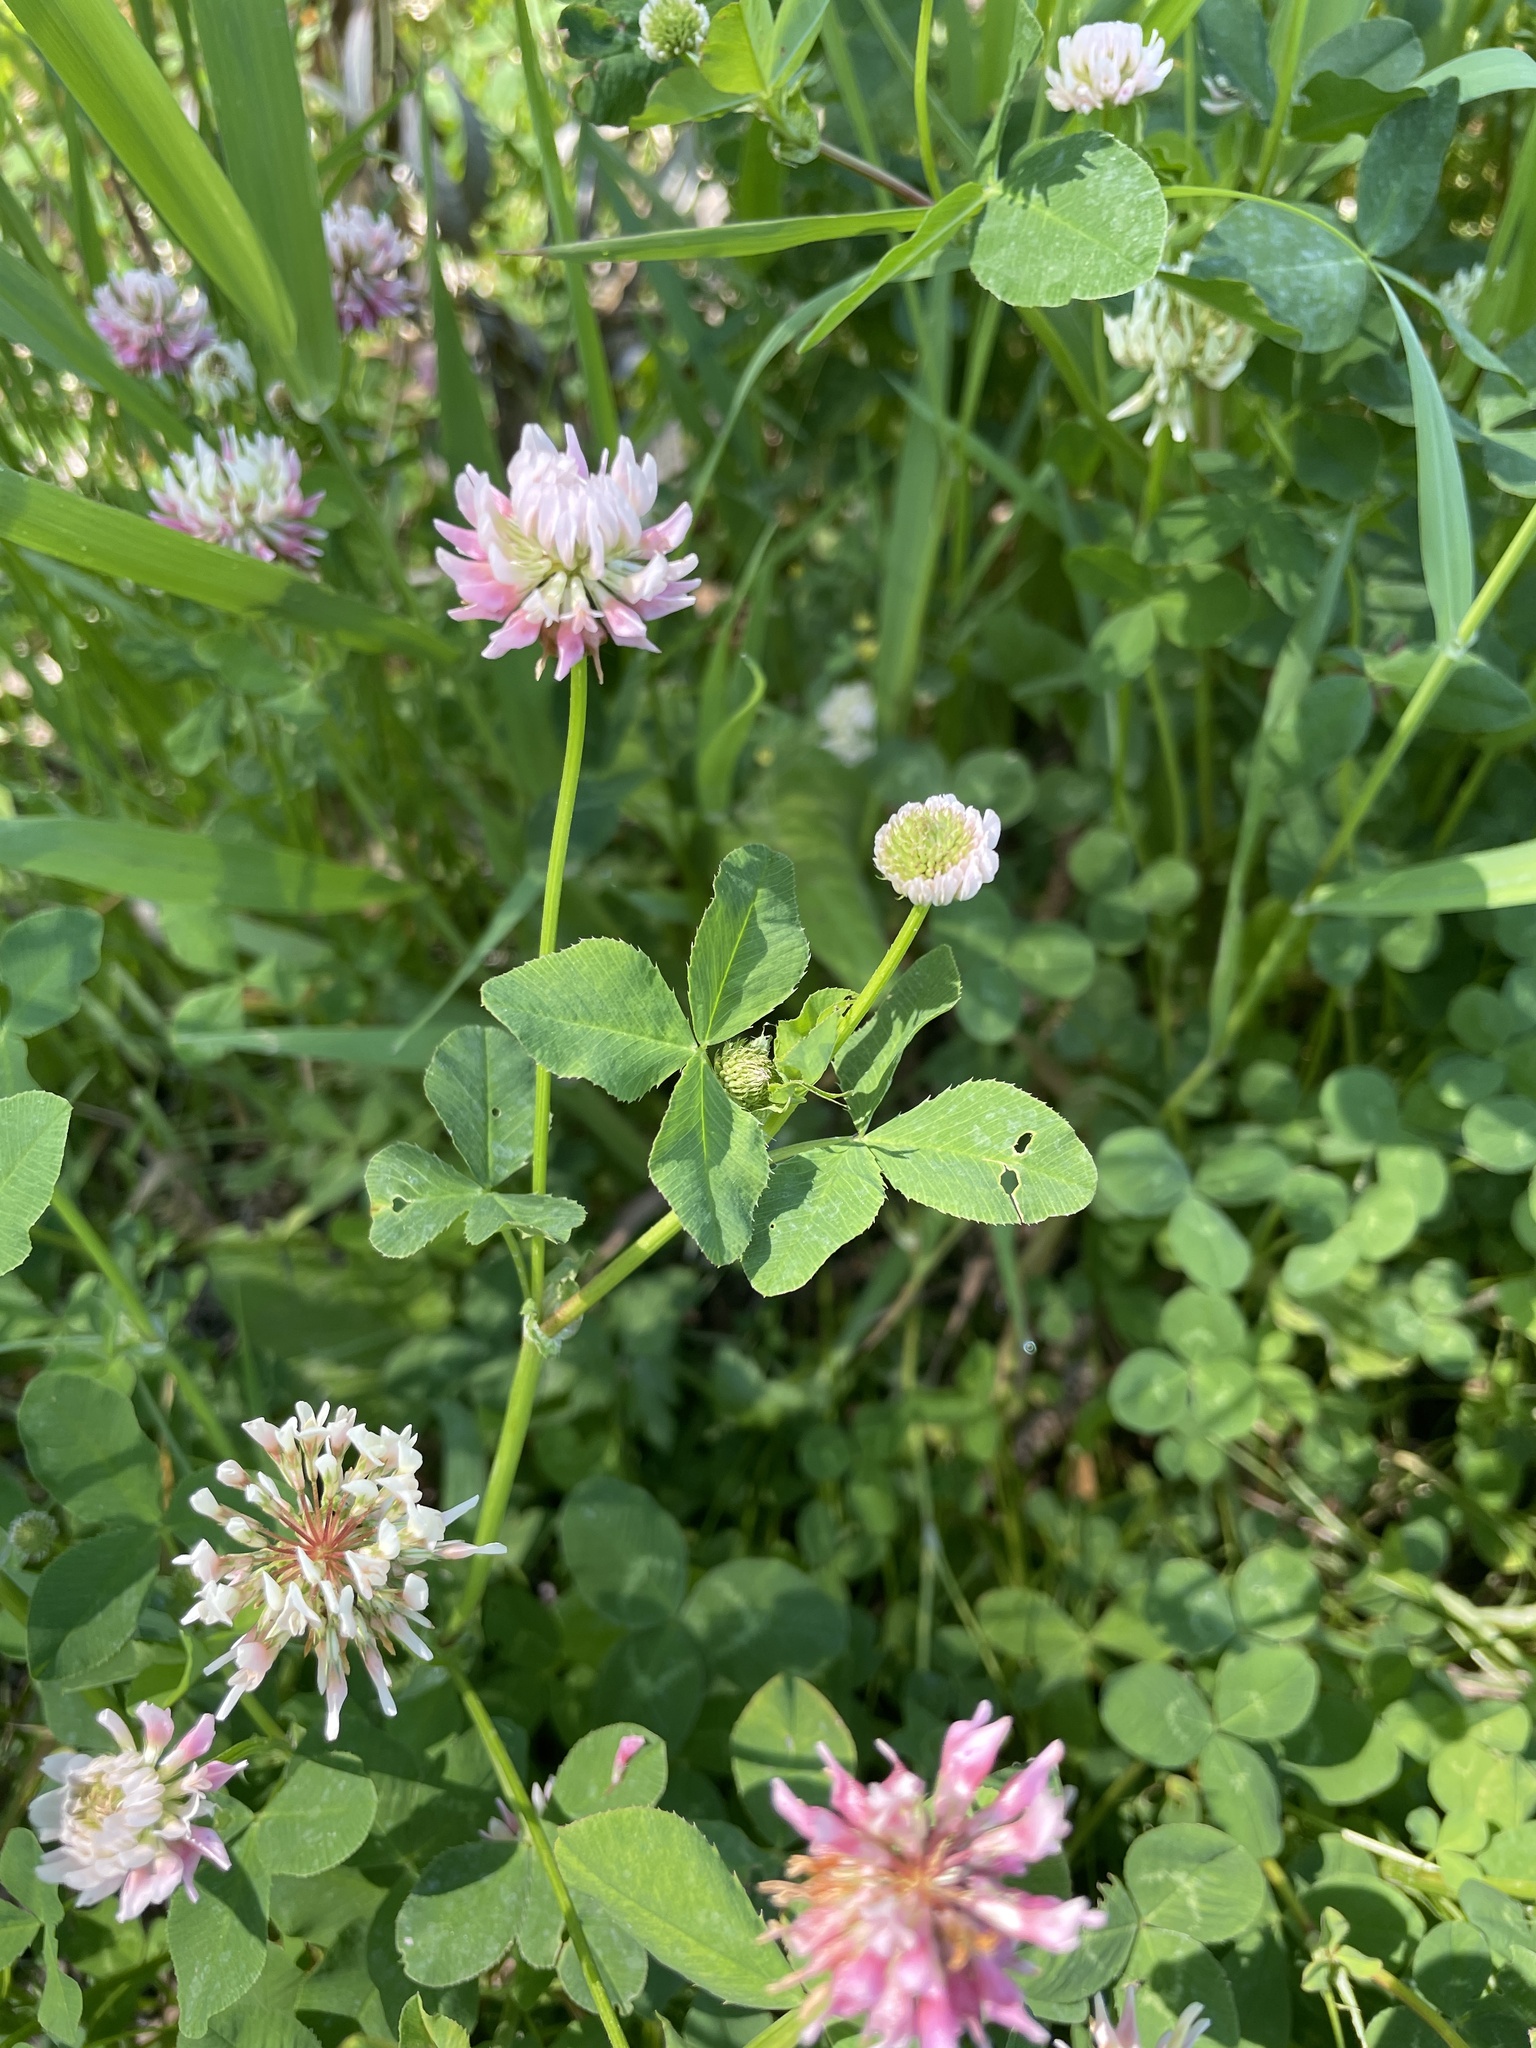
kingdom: Plantae
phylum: Tracheophyta
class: Magnoliopsida
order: Fabales
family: Fabaceae
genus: Trifolium
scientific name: Trifolium hybridum
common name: Alsike clover
